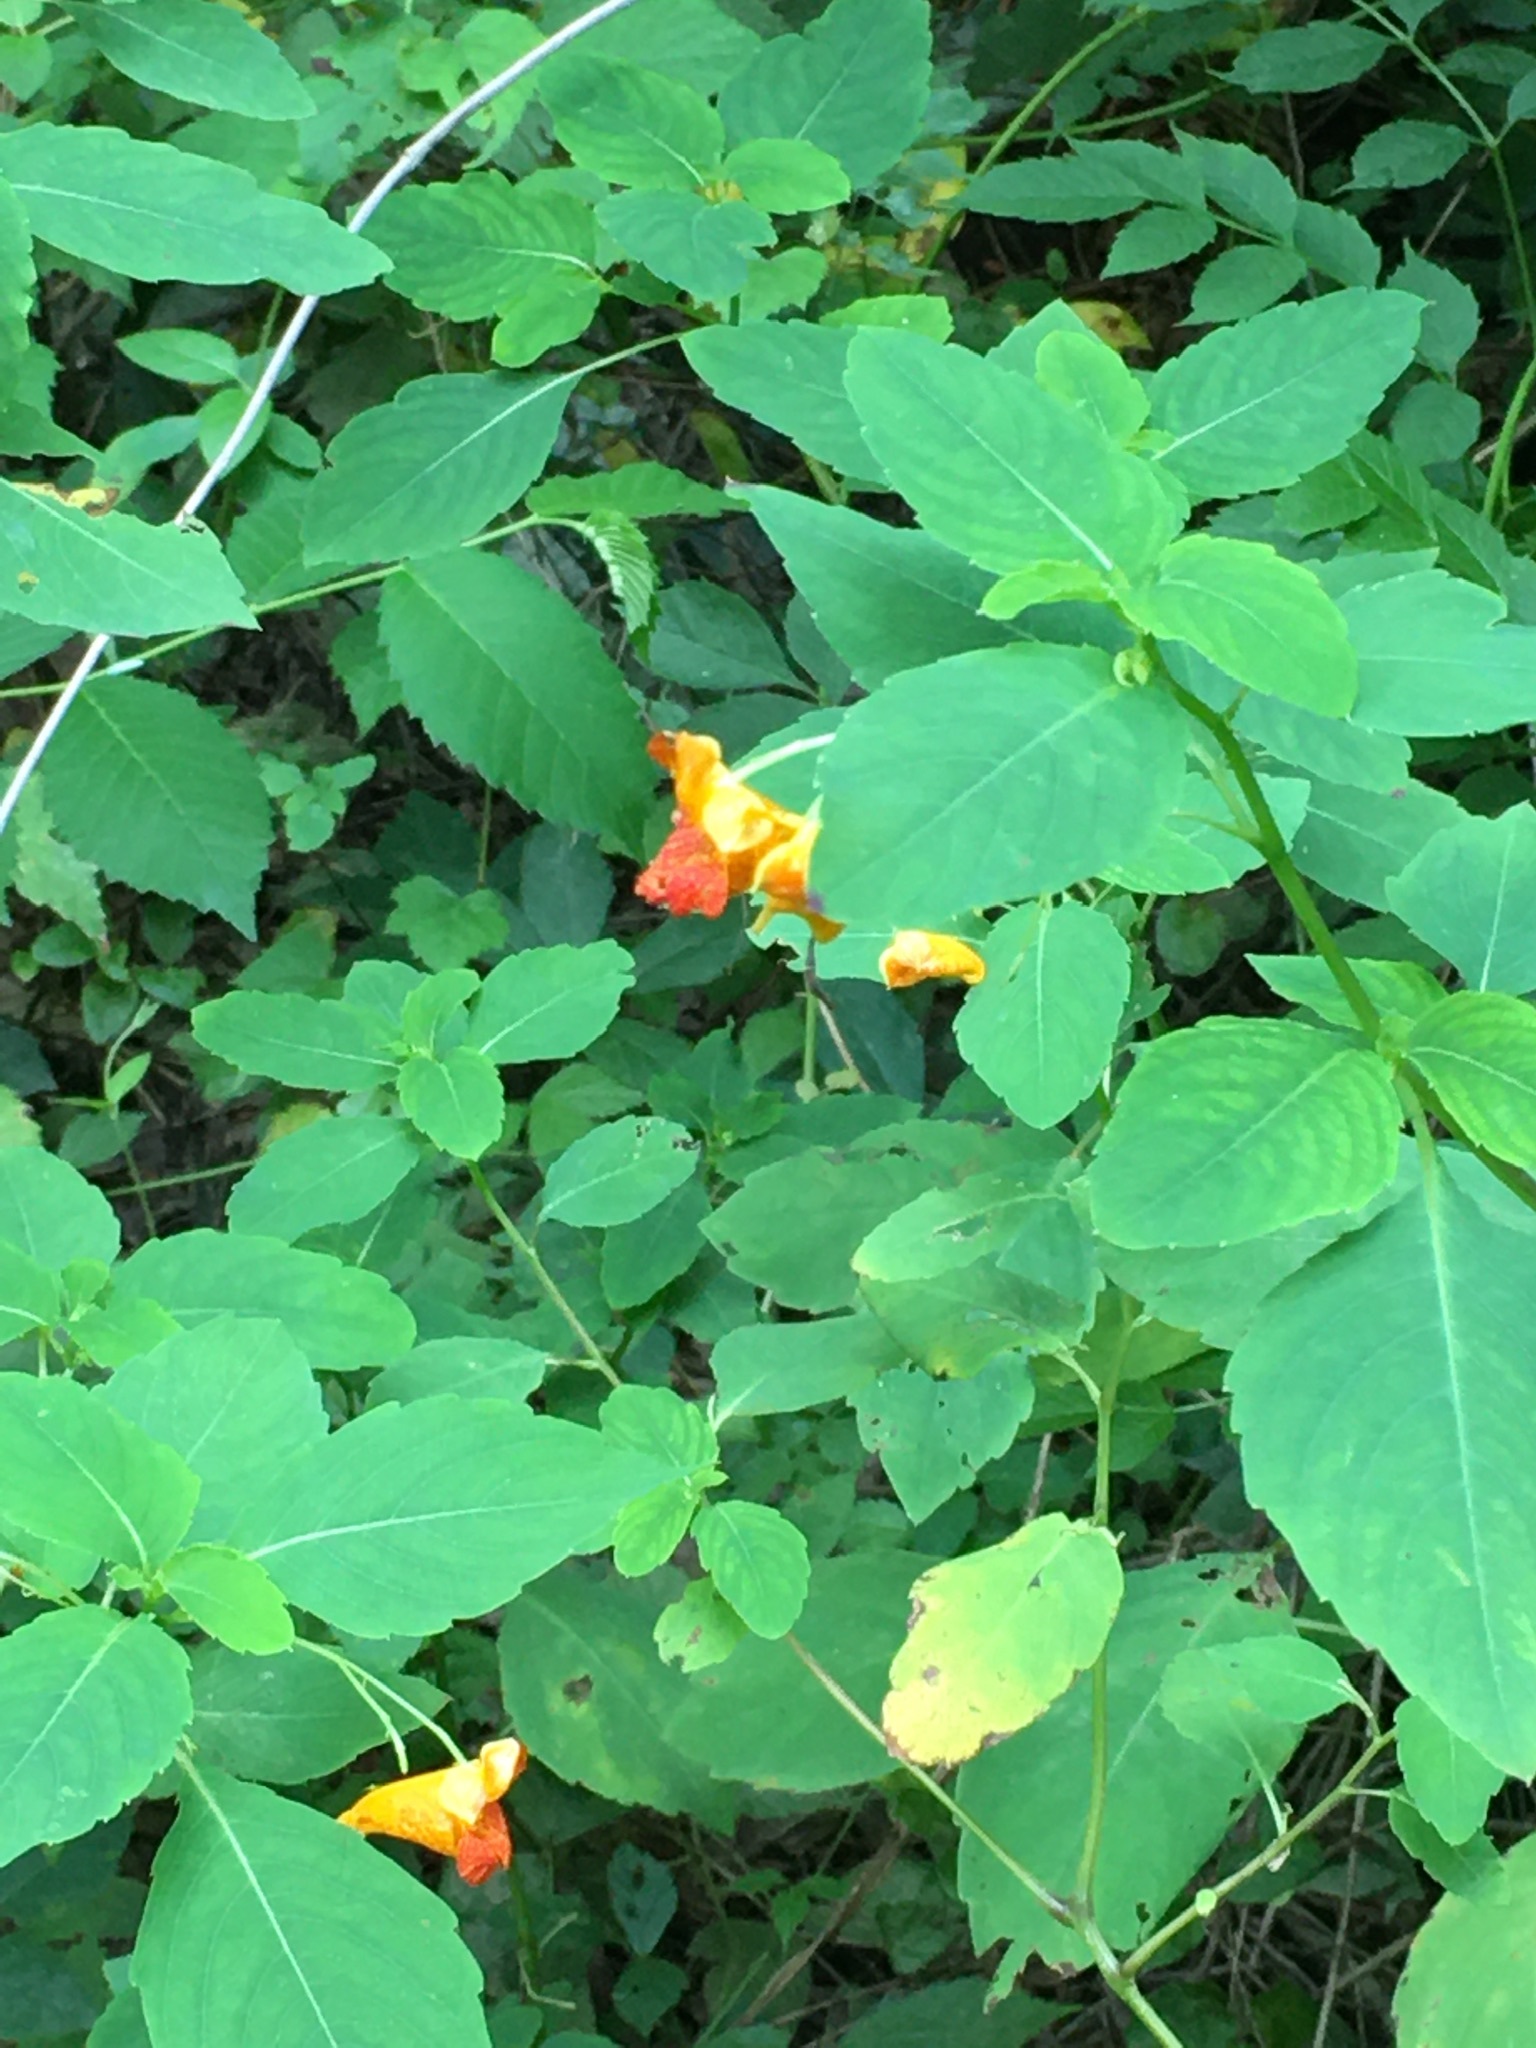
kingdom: Plantae
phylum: Tracheophyta
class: Magnoliopsida
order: Ericales
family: Balsaminaceae
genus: Impatiens
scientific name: Impatiens capensis
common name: Orange balsam
